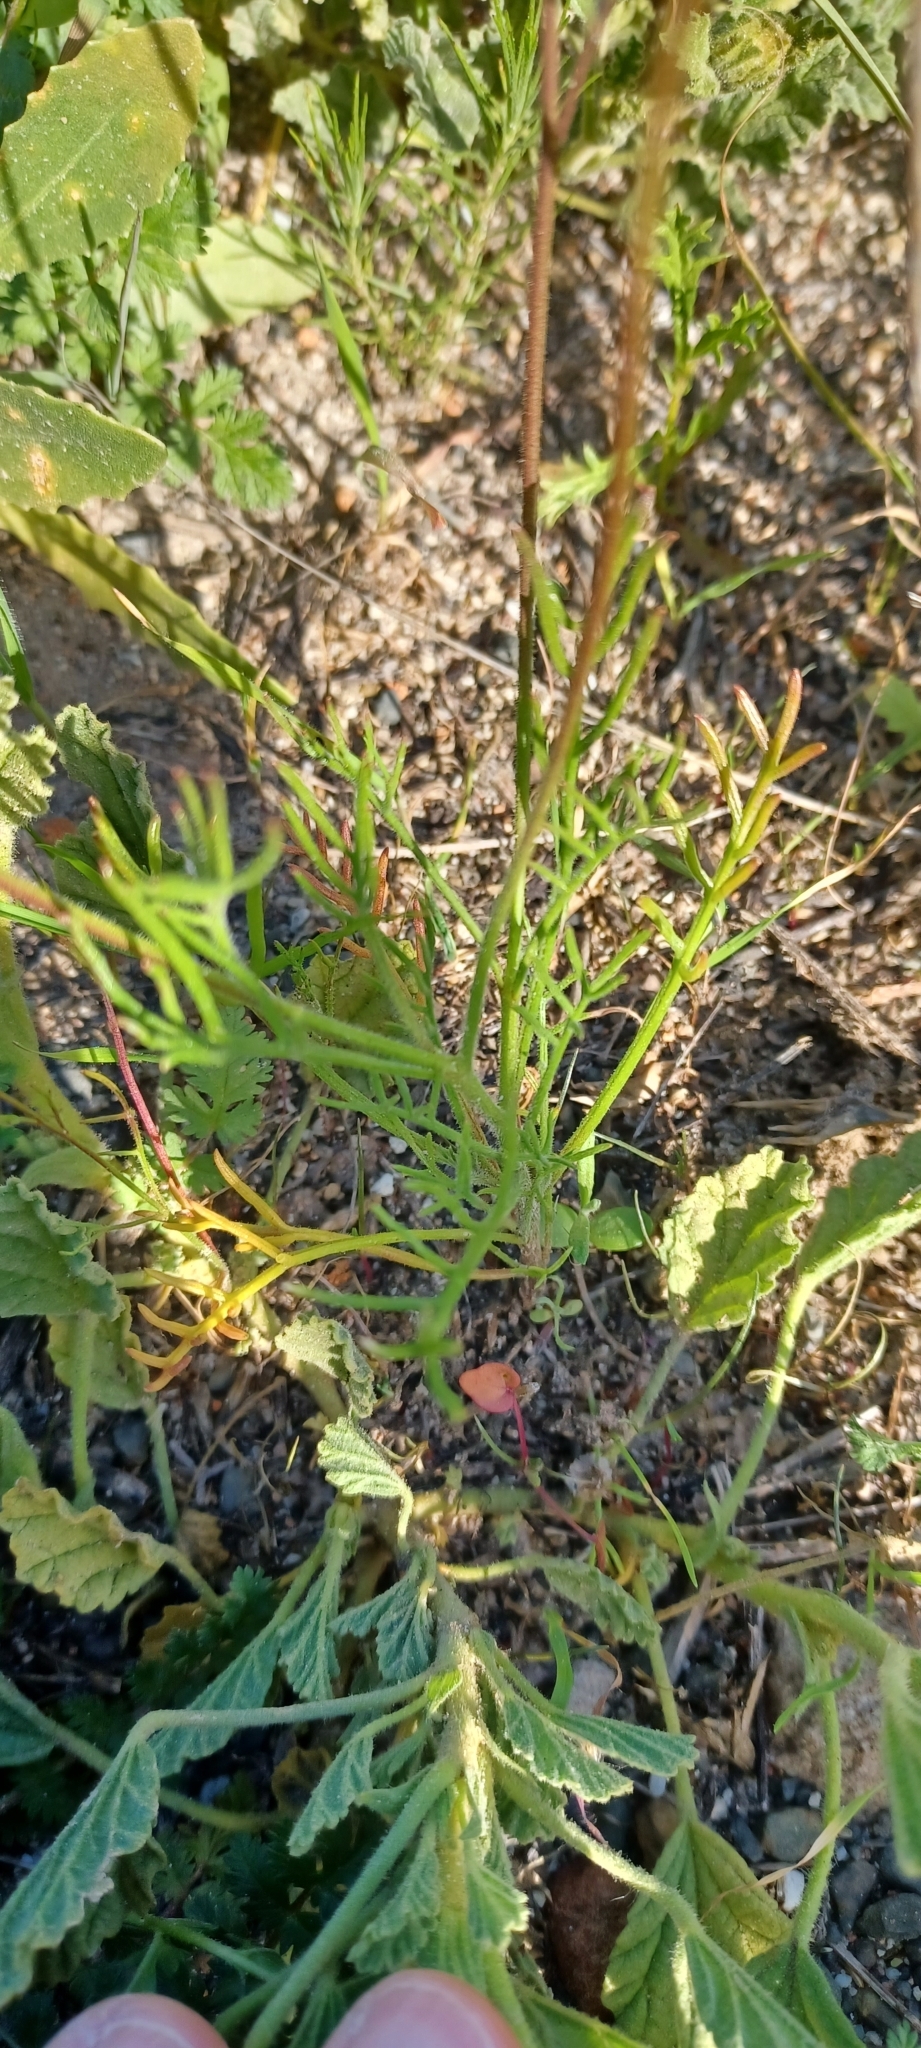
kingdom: Plantae
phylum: Tracheophyta
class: Magnoliopsida
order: Brassicales
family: Brassicaceae
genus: Heliophila
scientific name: Heliophila crithmifolia
